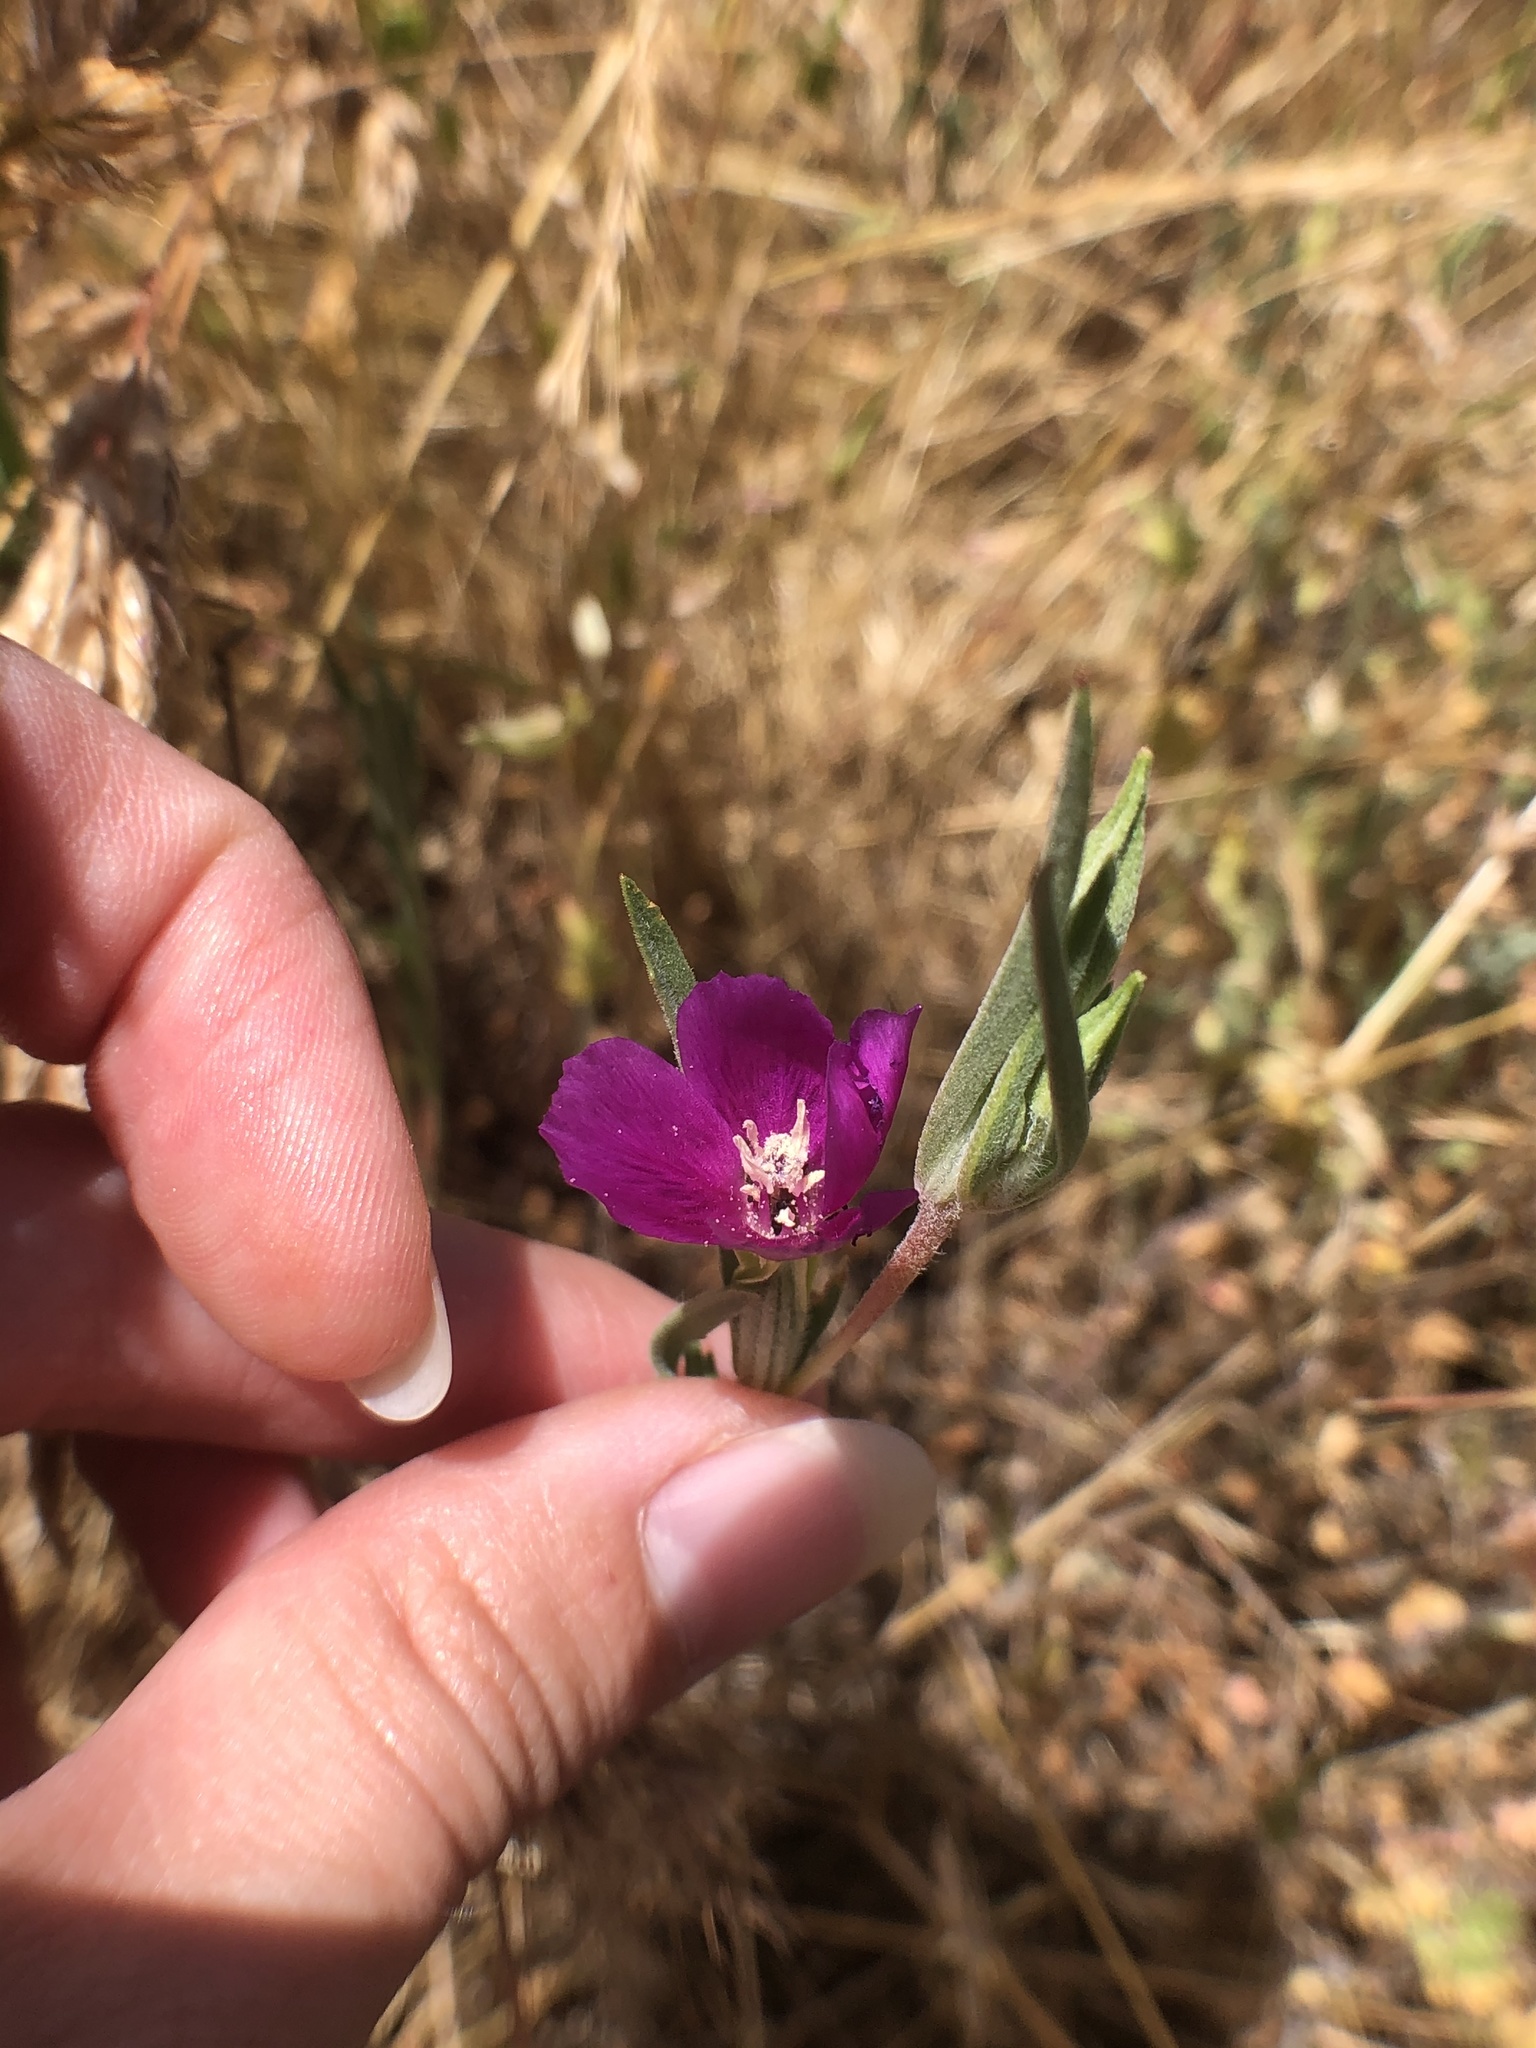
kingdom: Plantae
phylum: Tracheophyta
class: Magnoliopsida
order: Myrtales
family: Onagraceae
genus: Clarkia
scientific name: Clarkia purpurea
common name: Purple clarkia
